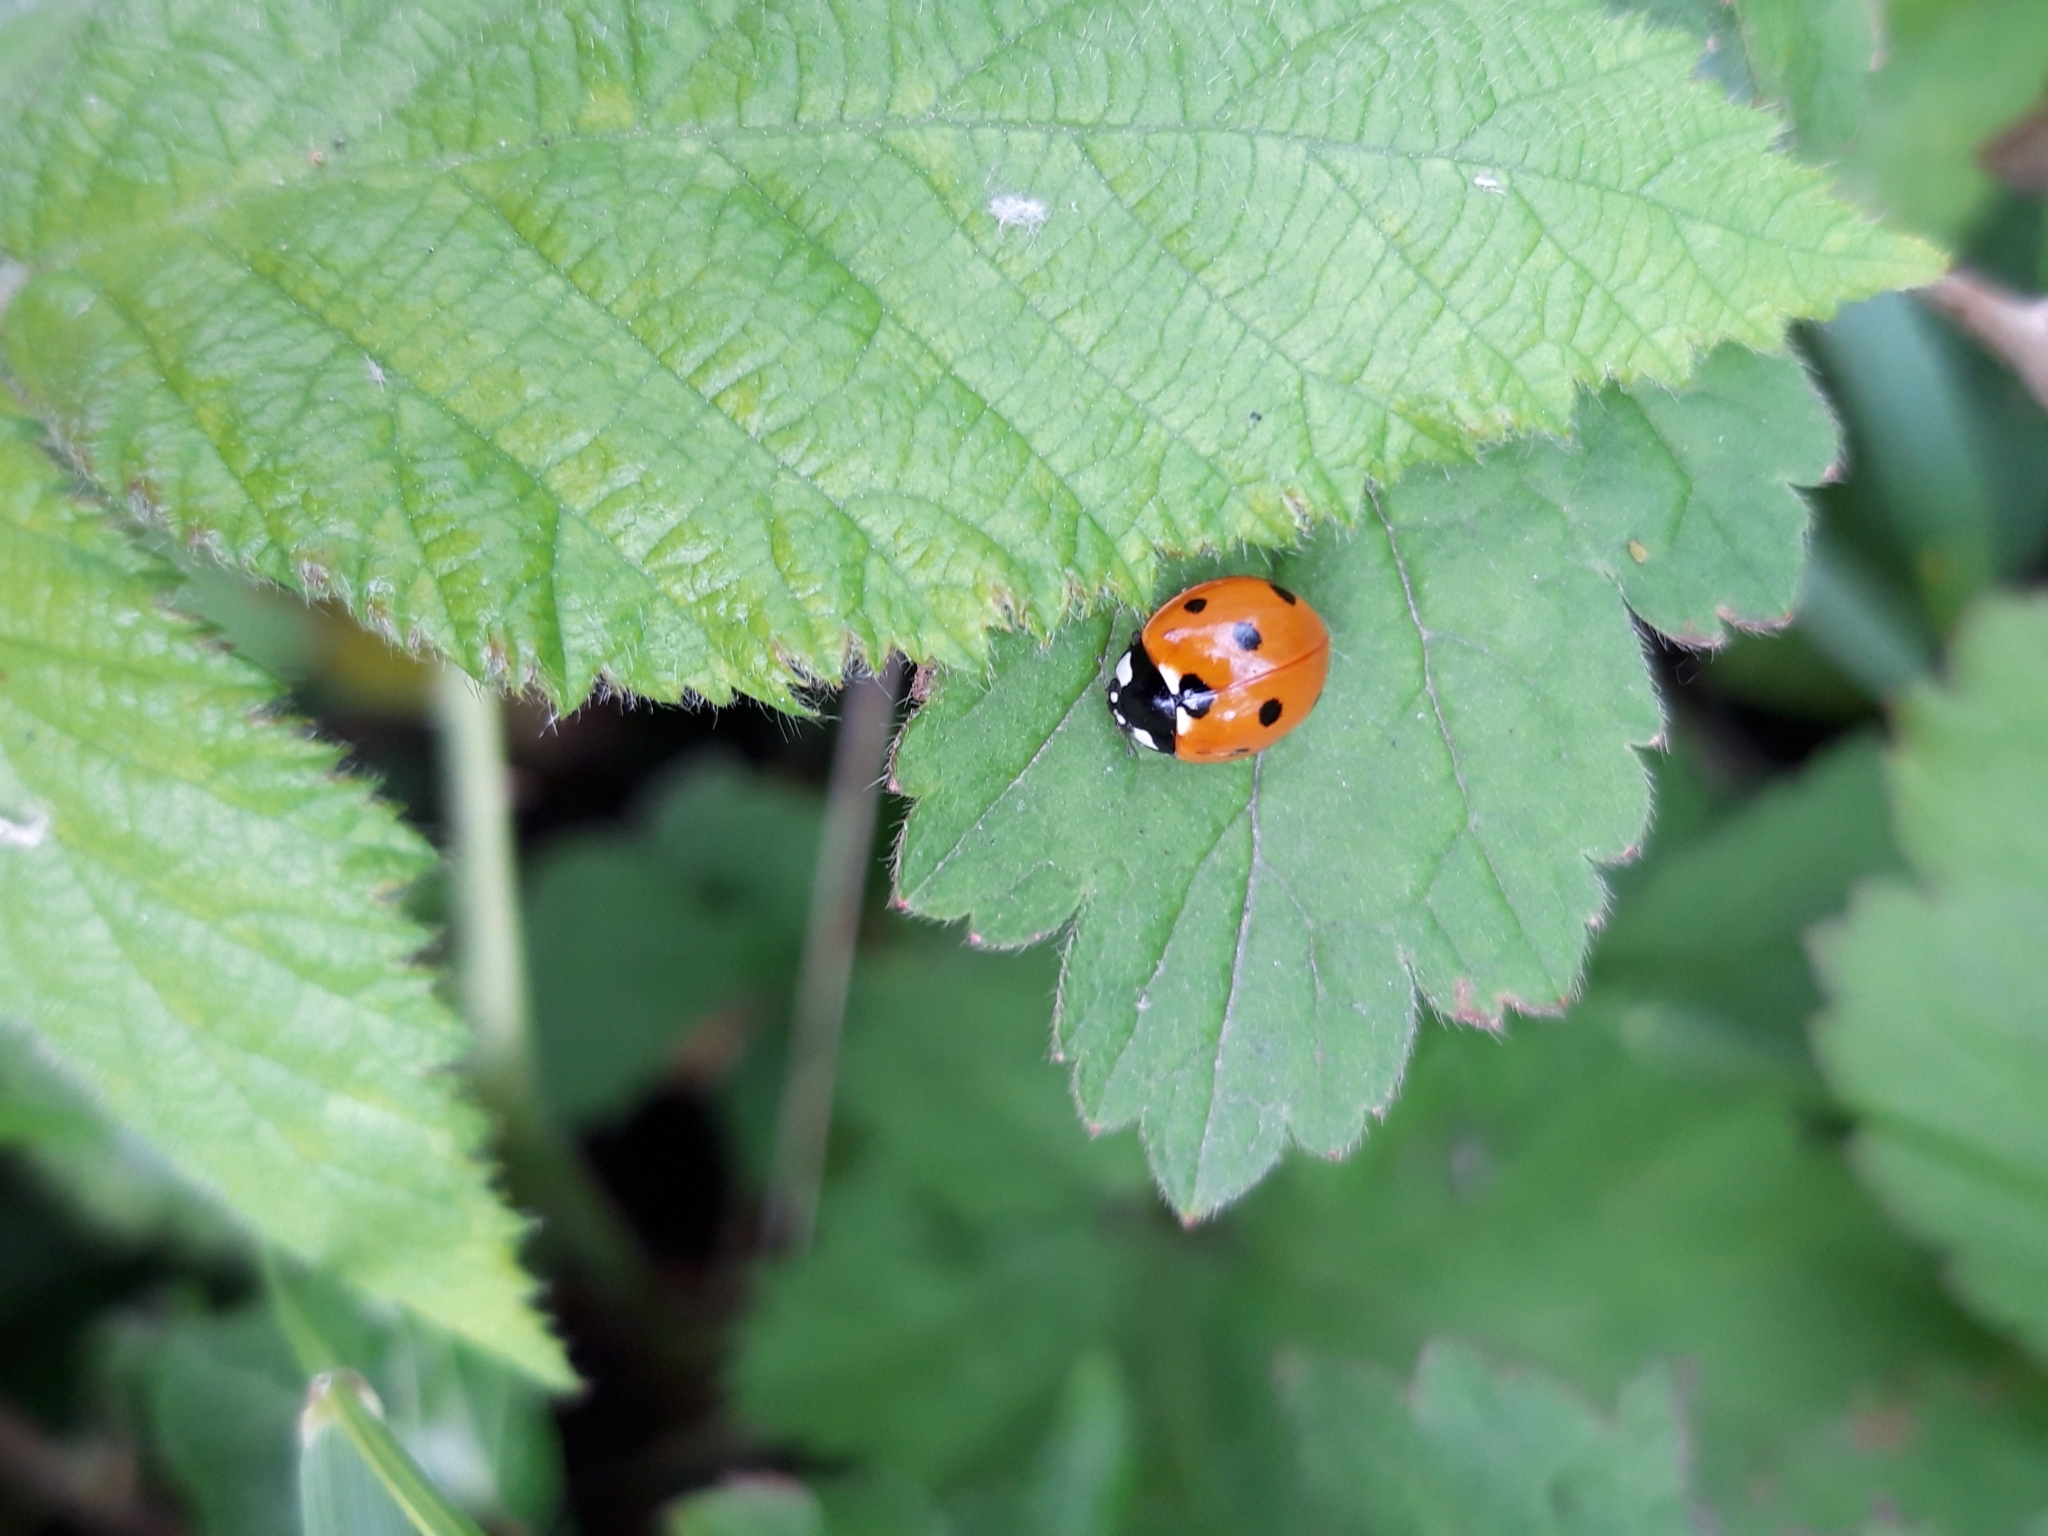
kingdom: Animalia
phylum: Arthropoda
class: Insecta
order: Coleoptera
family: Coccinellidae
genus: Coccinella
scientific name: Coccinella septempunctata
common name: Sevenspotted lady beetle
